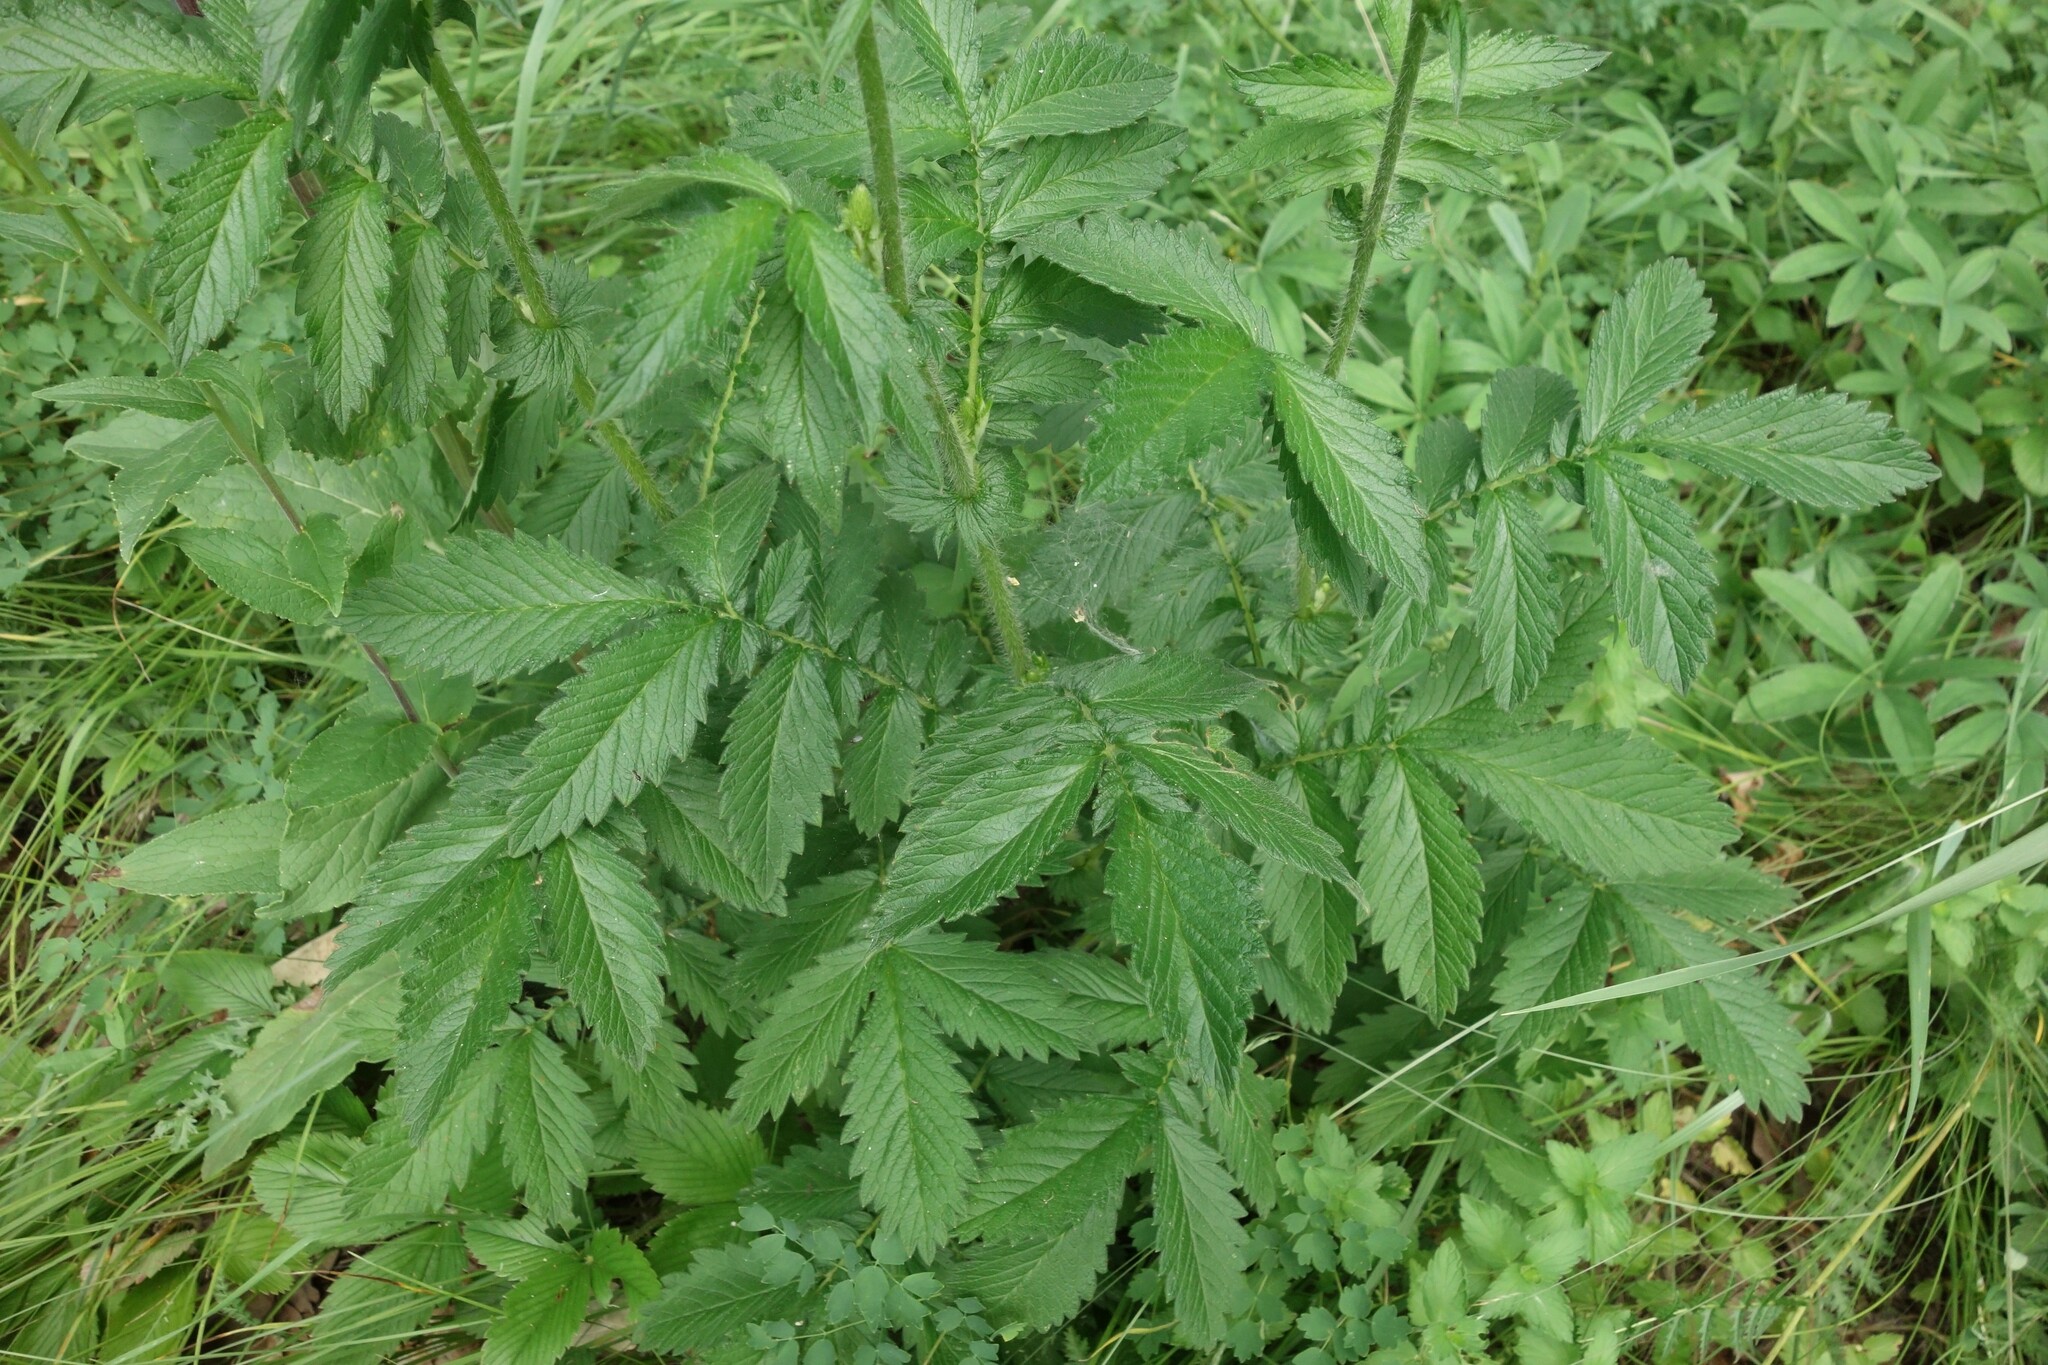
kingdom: Plantae
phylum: Tracheophyta
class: Magnoliopsida
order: Rosales
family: Rosaceae
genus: Agrimonia
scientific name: Agrimonia eupatoria
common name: Agrimony
